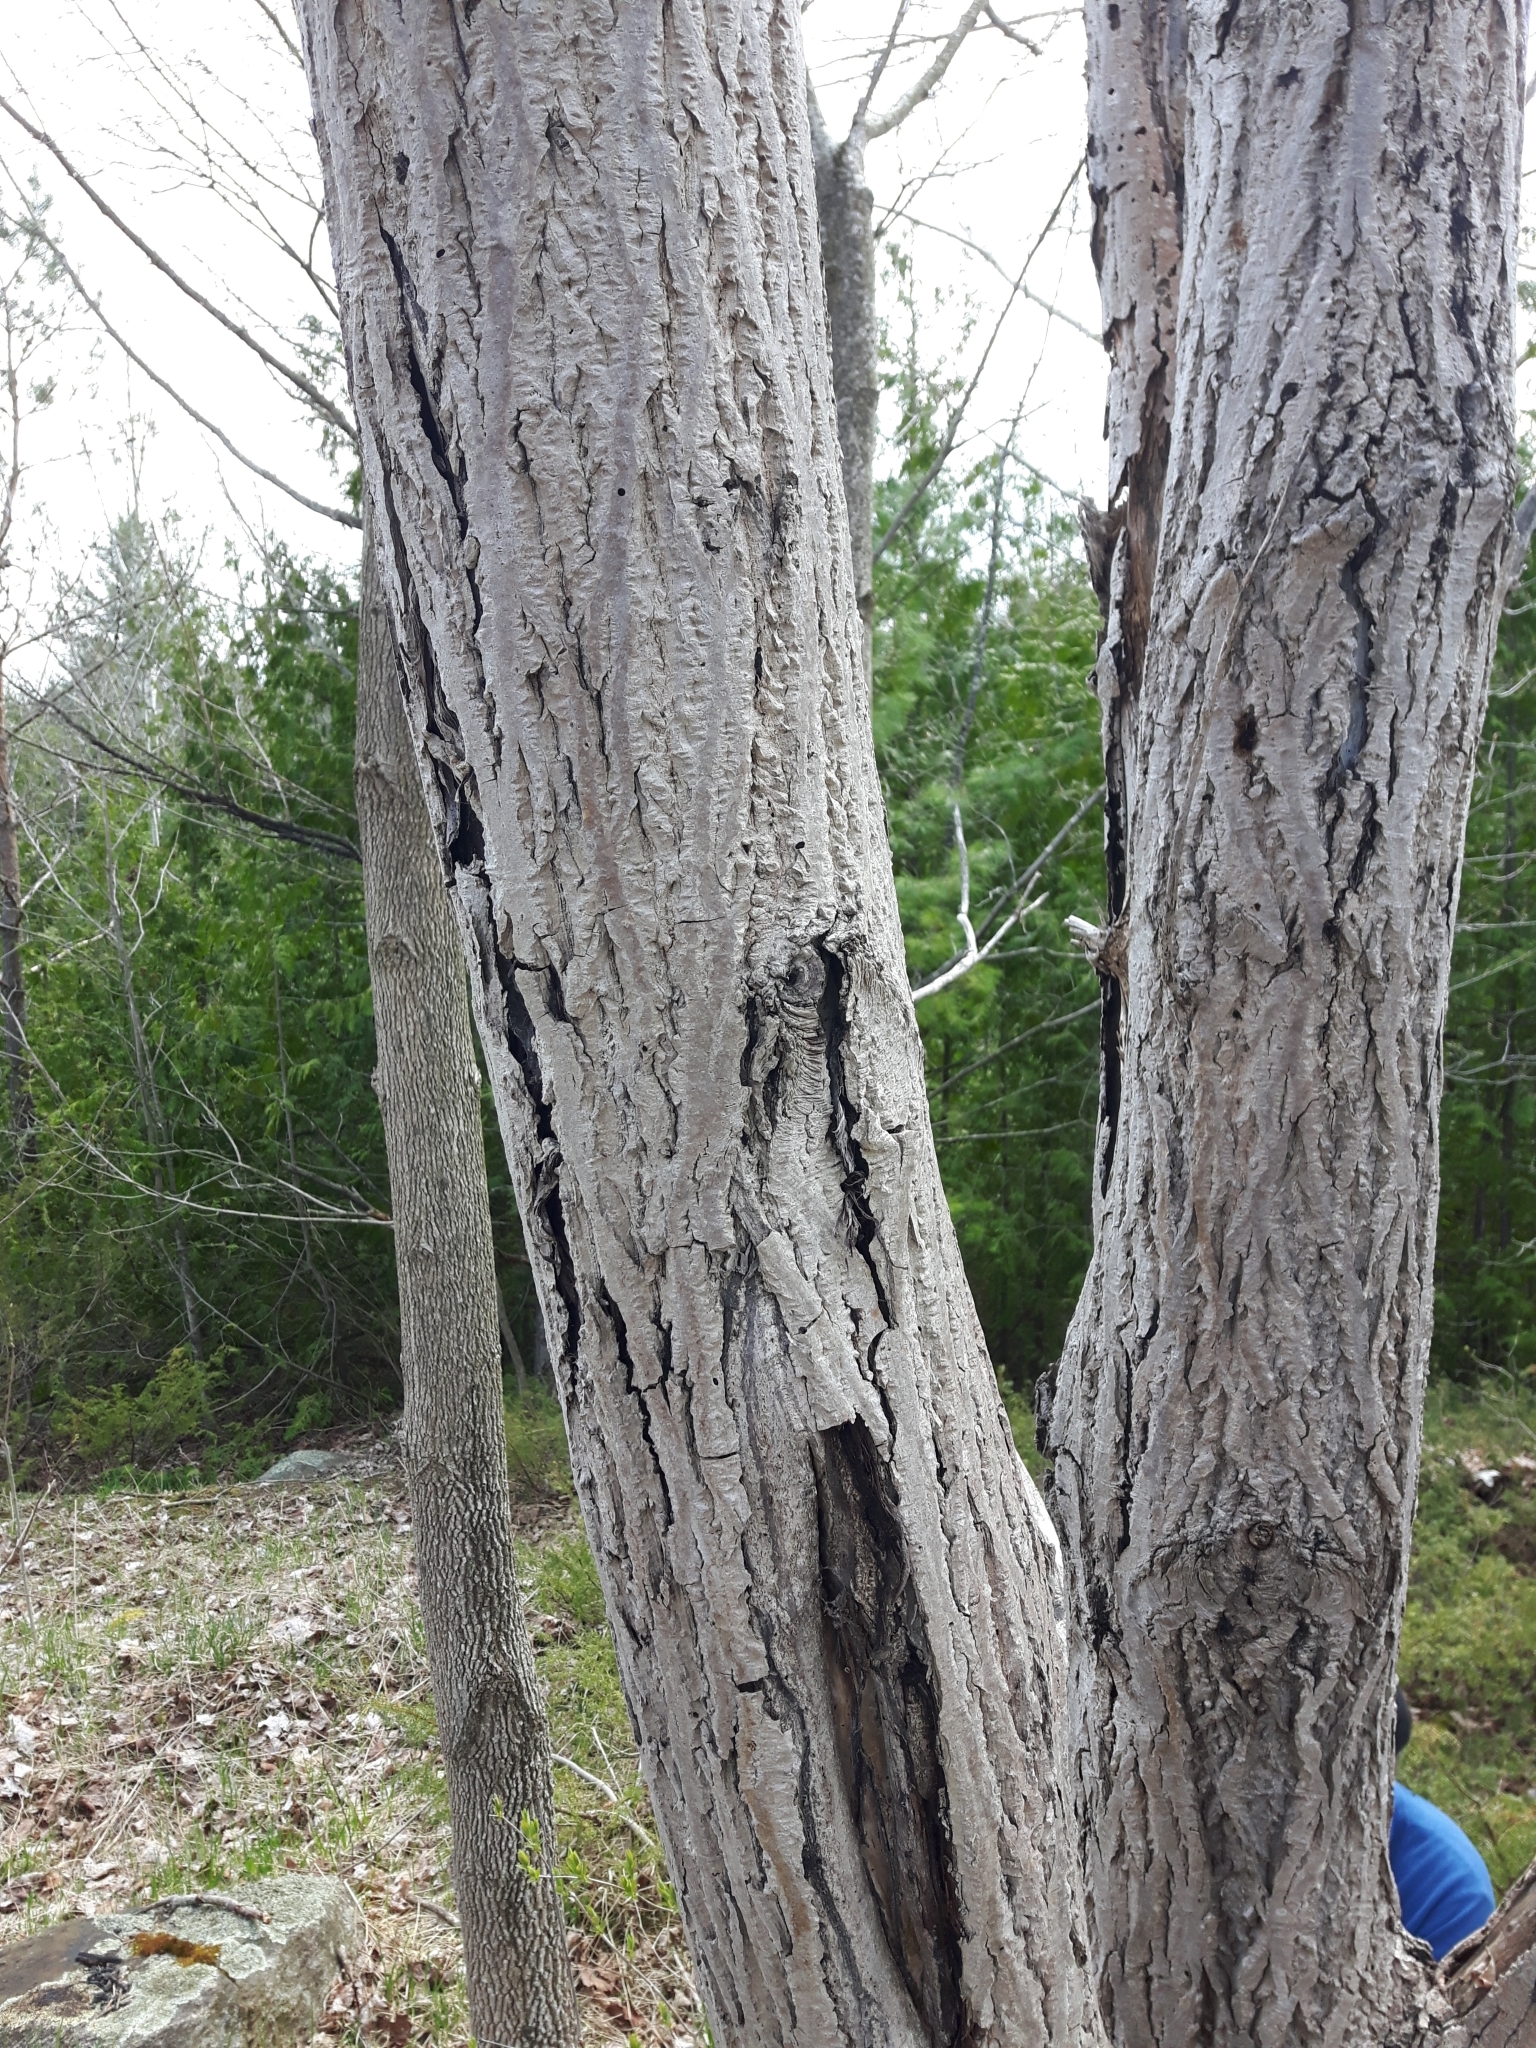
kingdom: Fungi
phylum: Ascomycota
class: Sordariomycetes
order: Diaporthales
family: Gnomoniaceae
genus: Ophiognomonia
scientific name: Ophiognomonia clavigignenti-juglandacearum
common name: Butternut canker fungus
